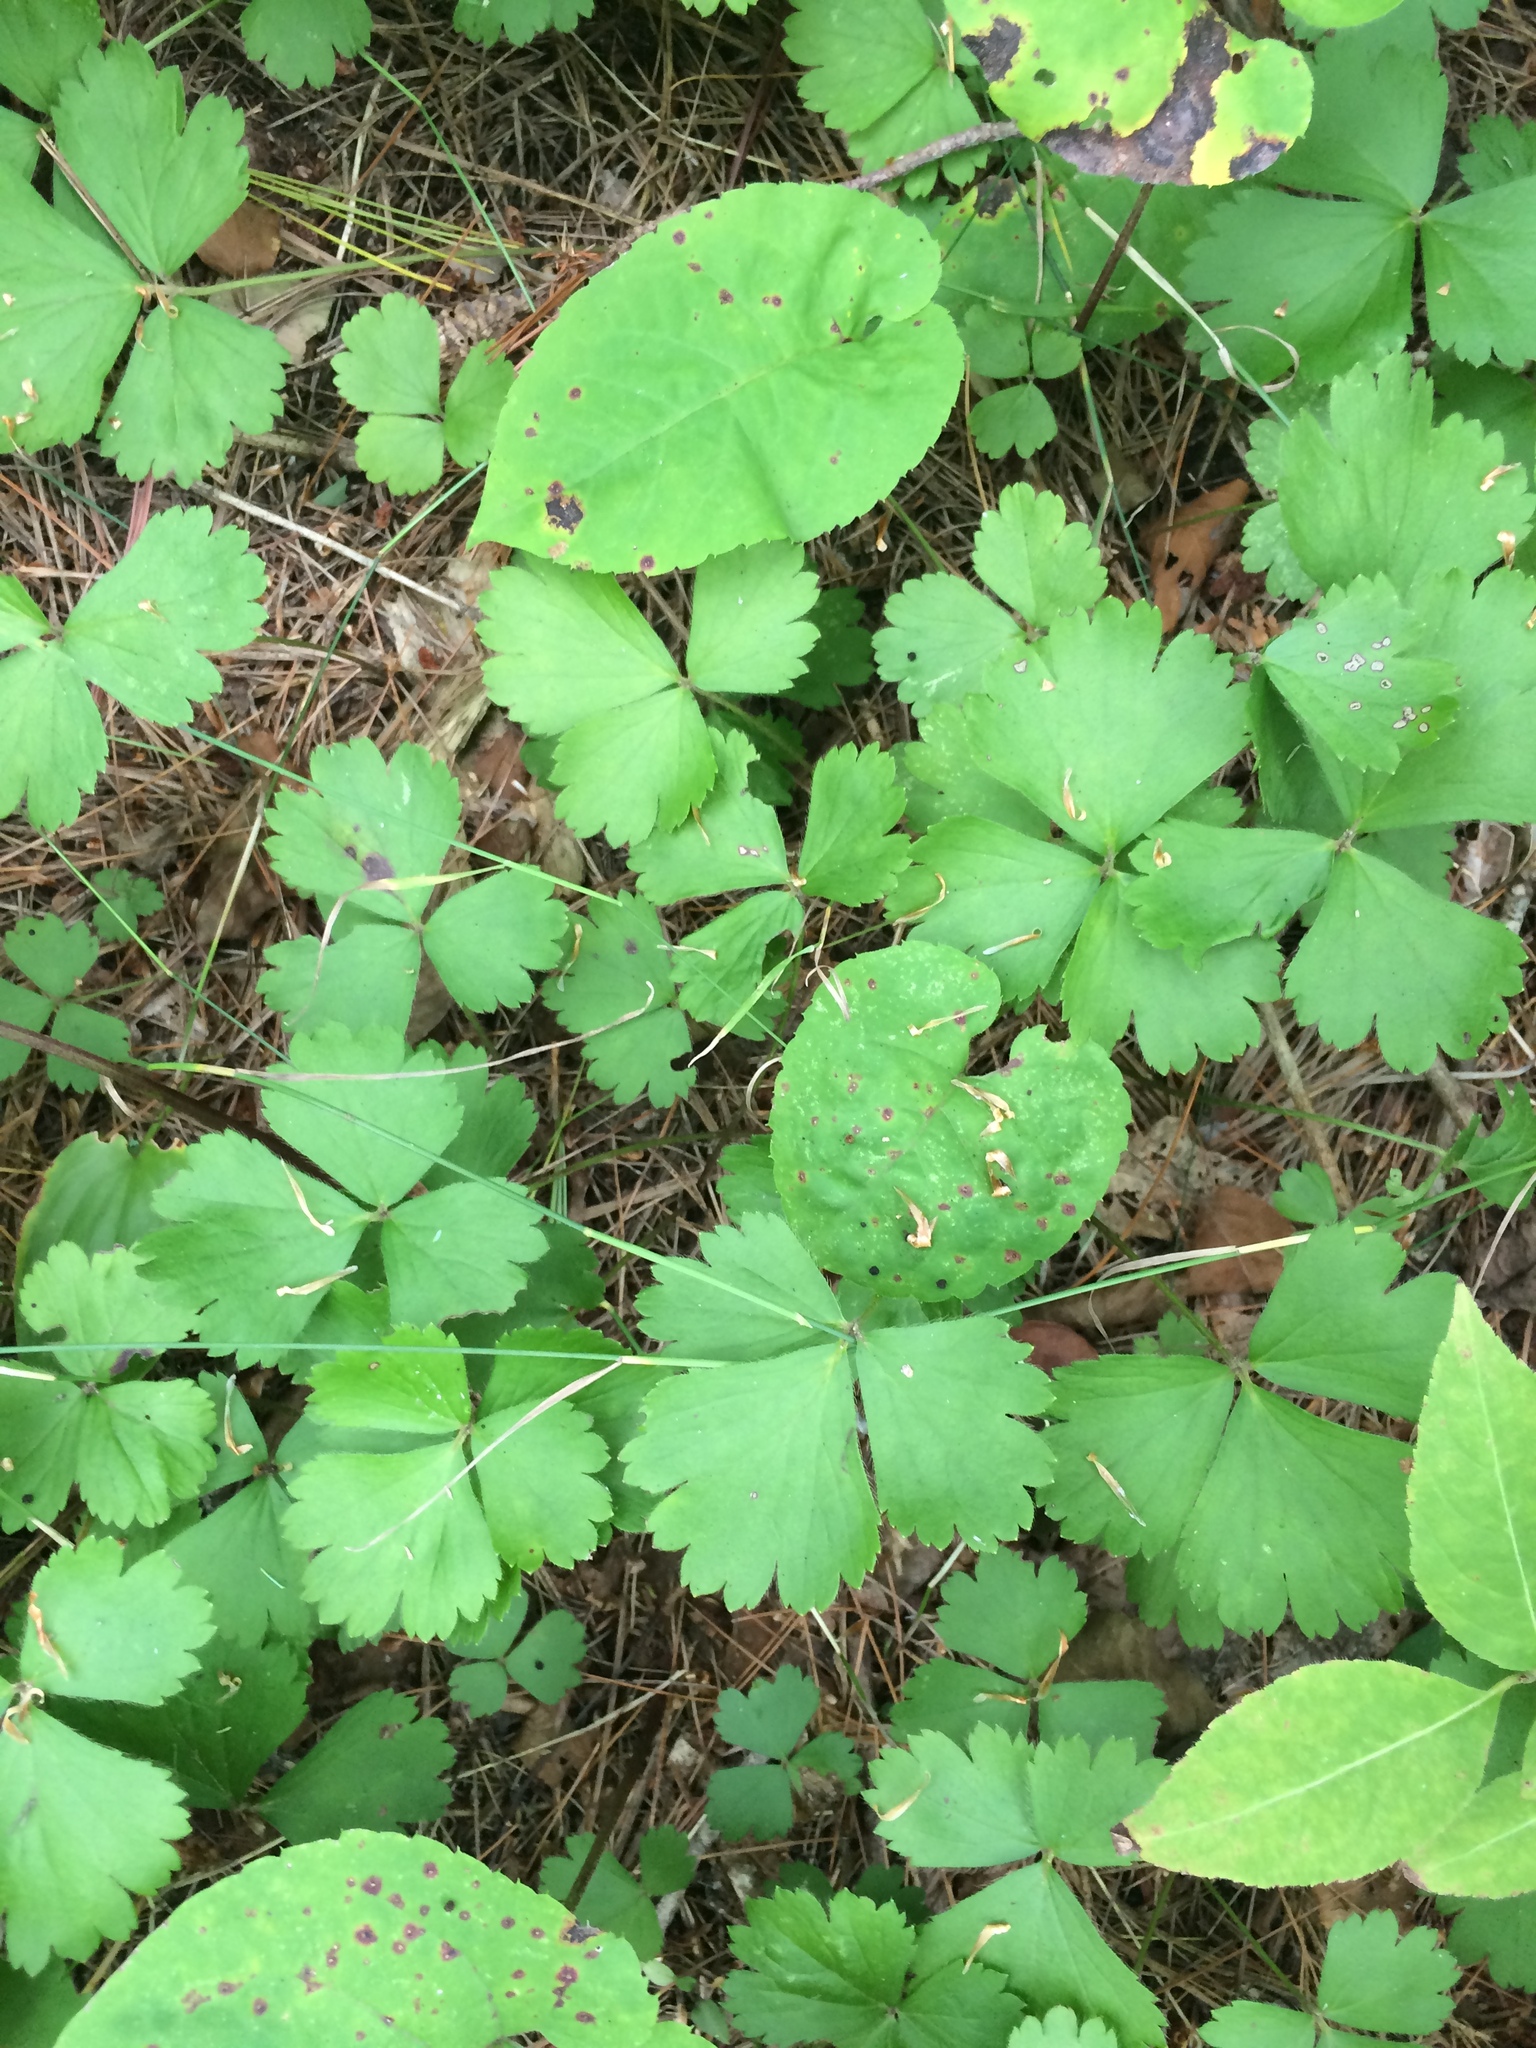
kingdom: Plantae
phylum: Tracheophyta
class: Magnoliopsida
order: Rosales
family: Rosaceae
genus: Geum
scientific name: Geum fragarioides
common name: Appalachian barren strawberry
